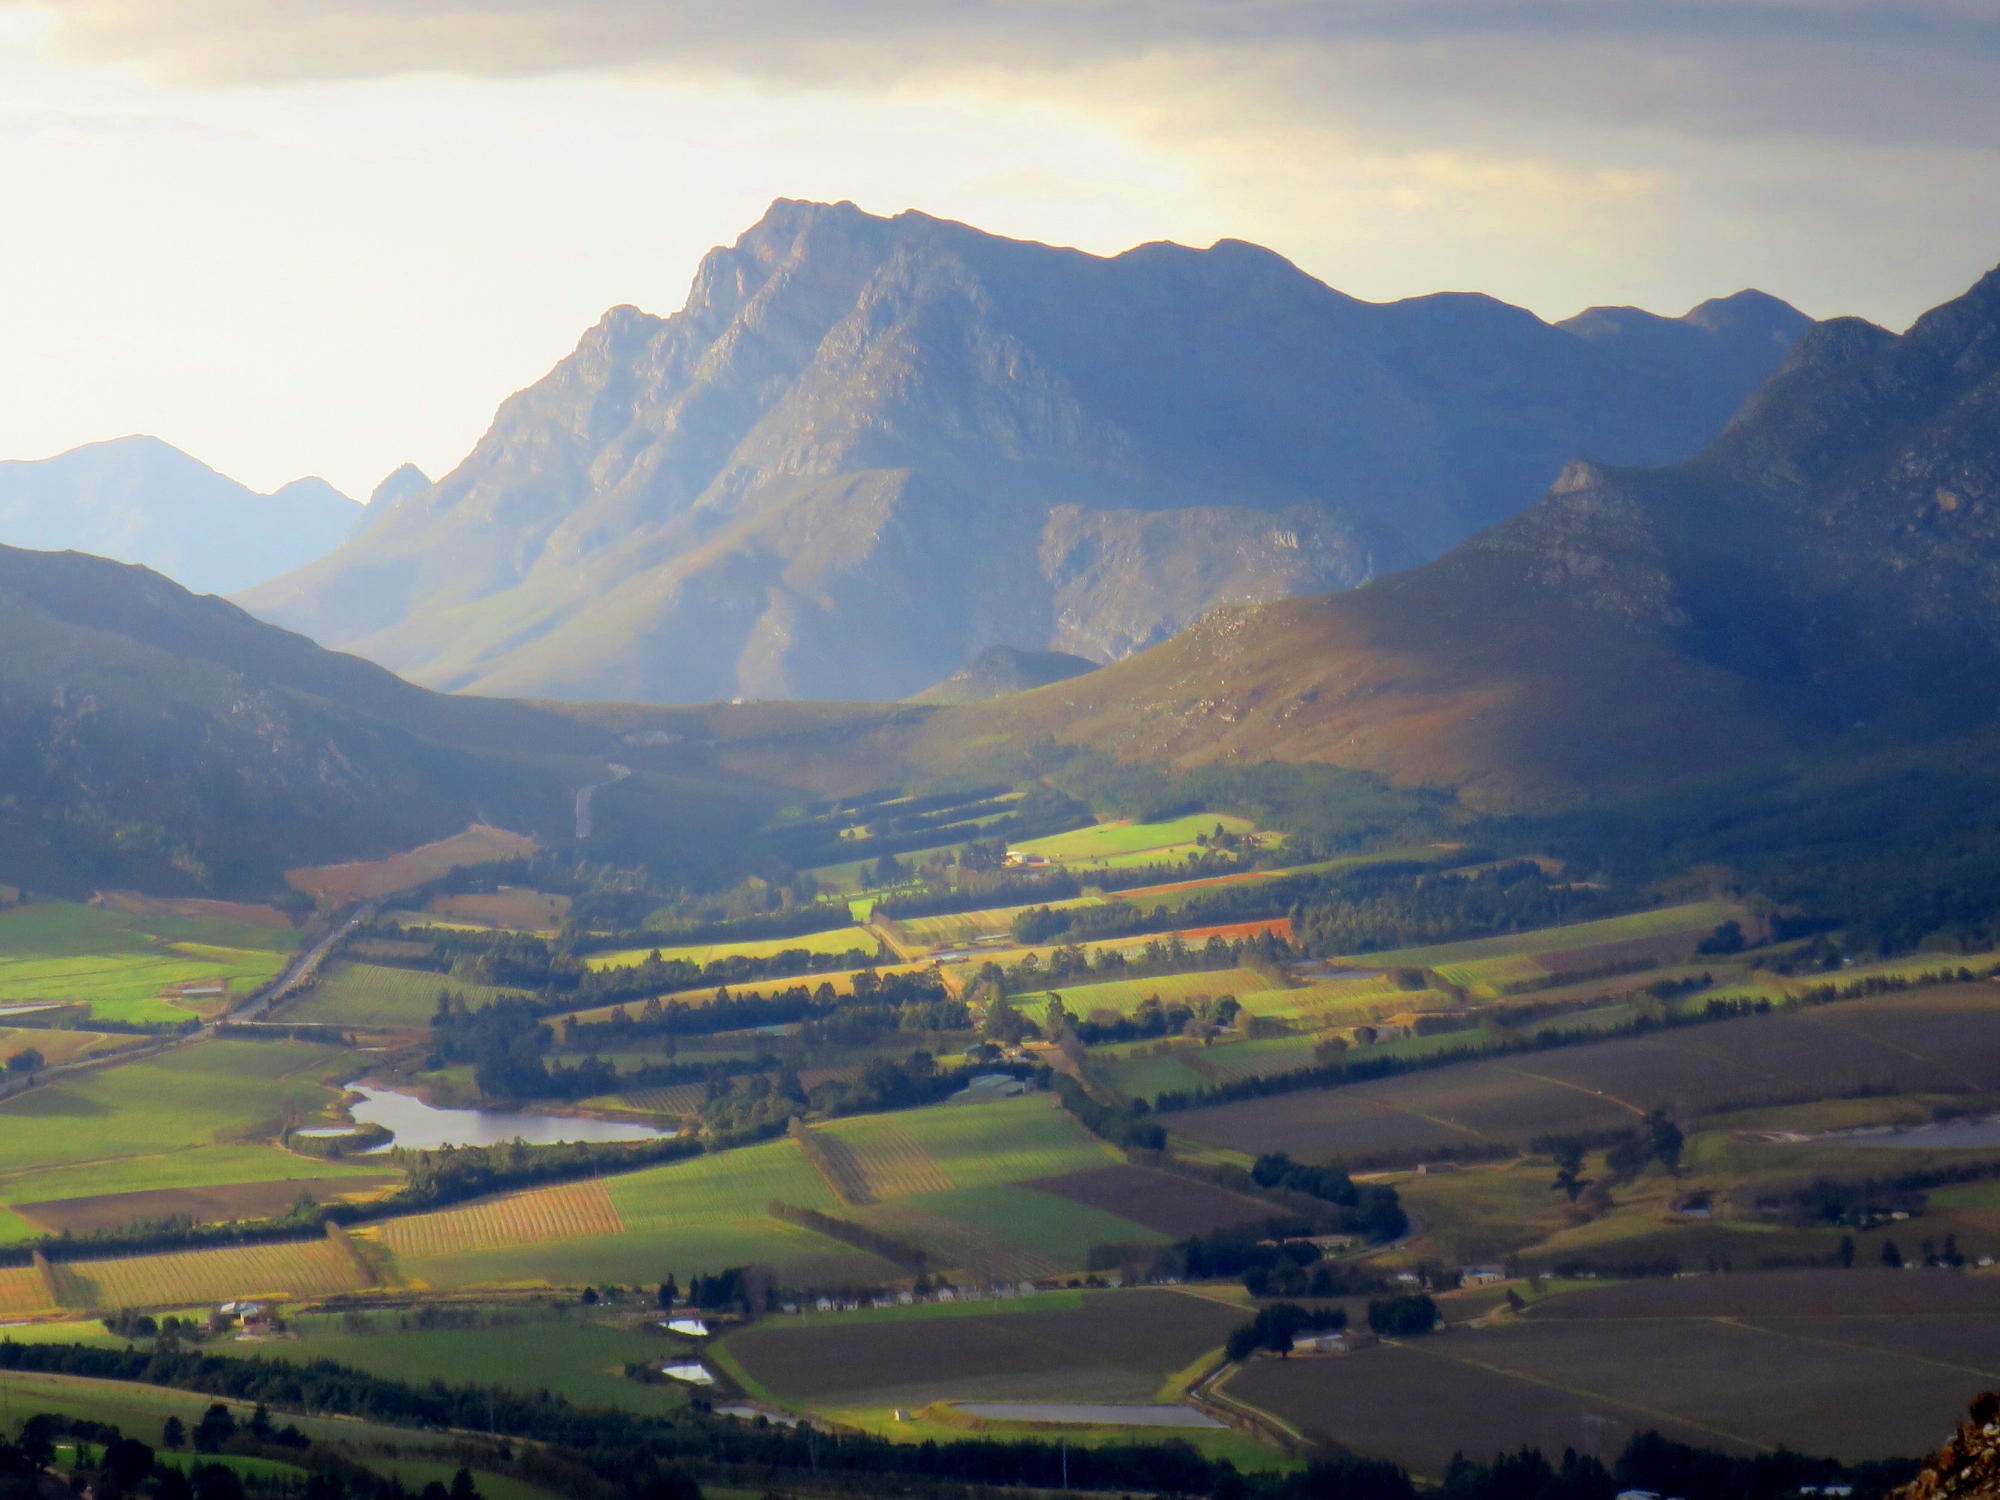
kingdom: Plantae
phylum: Tracheophyta
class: Magnoliopsida
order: Fabales
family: Fabaceae
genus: Acacia
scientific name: Acacia mearnsii
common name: Black wattle
